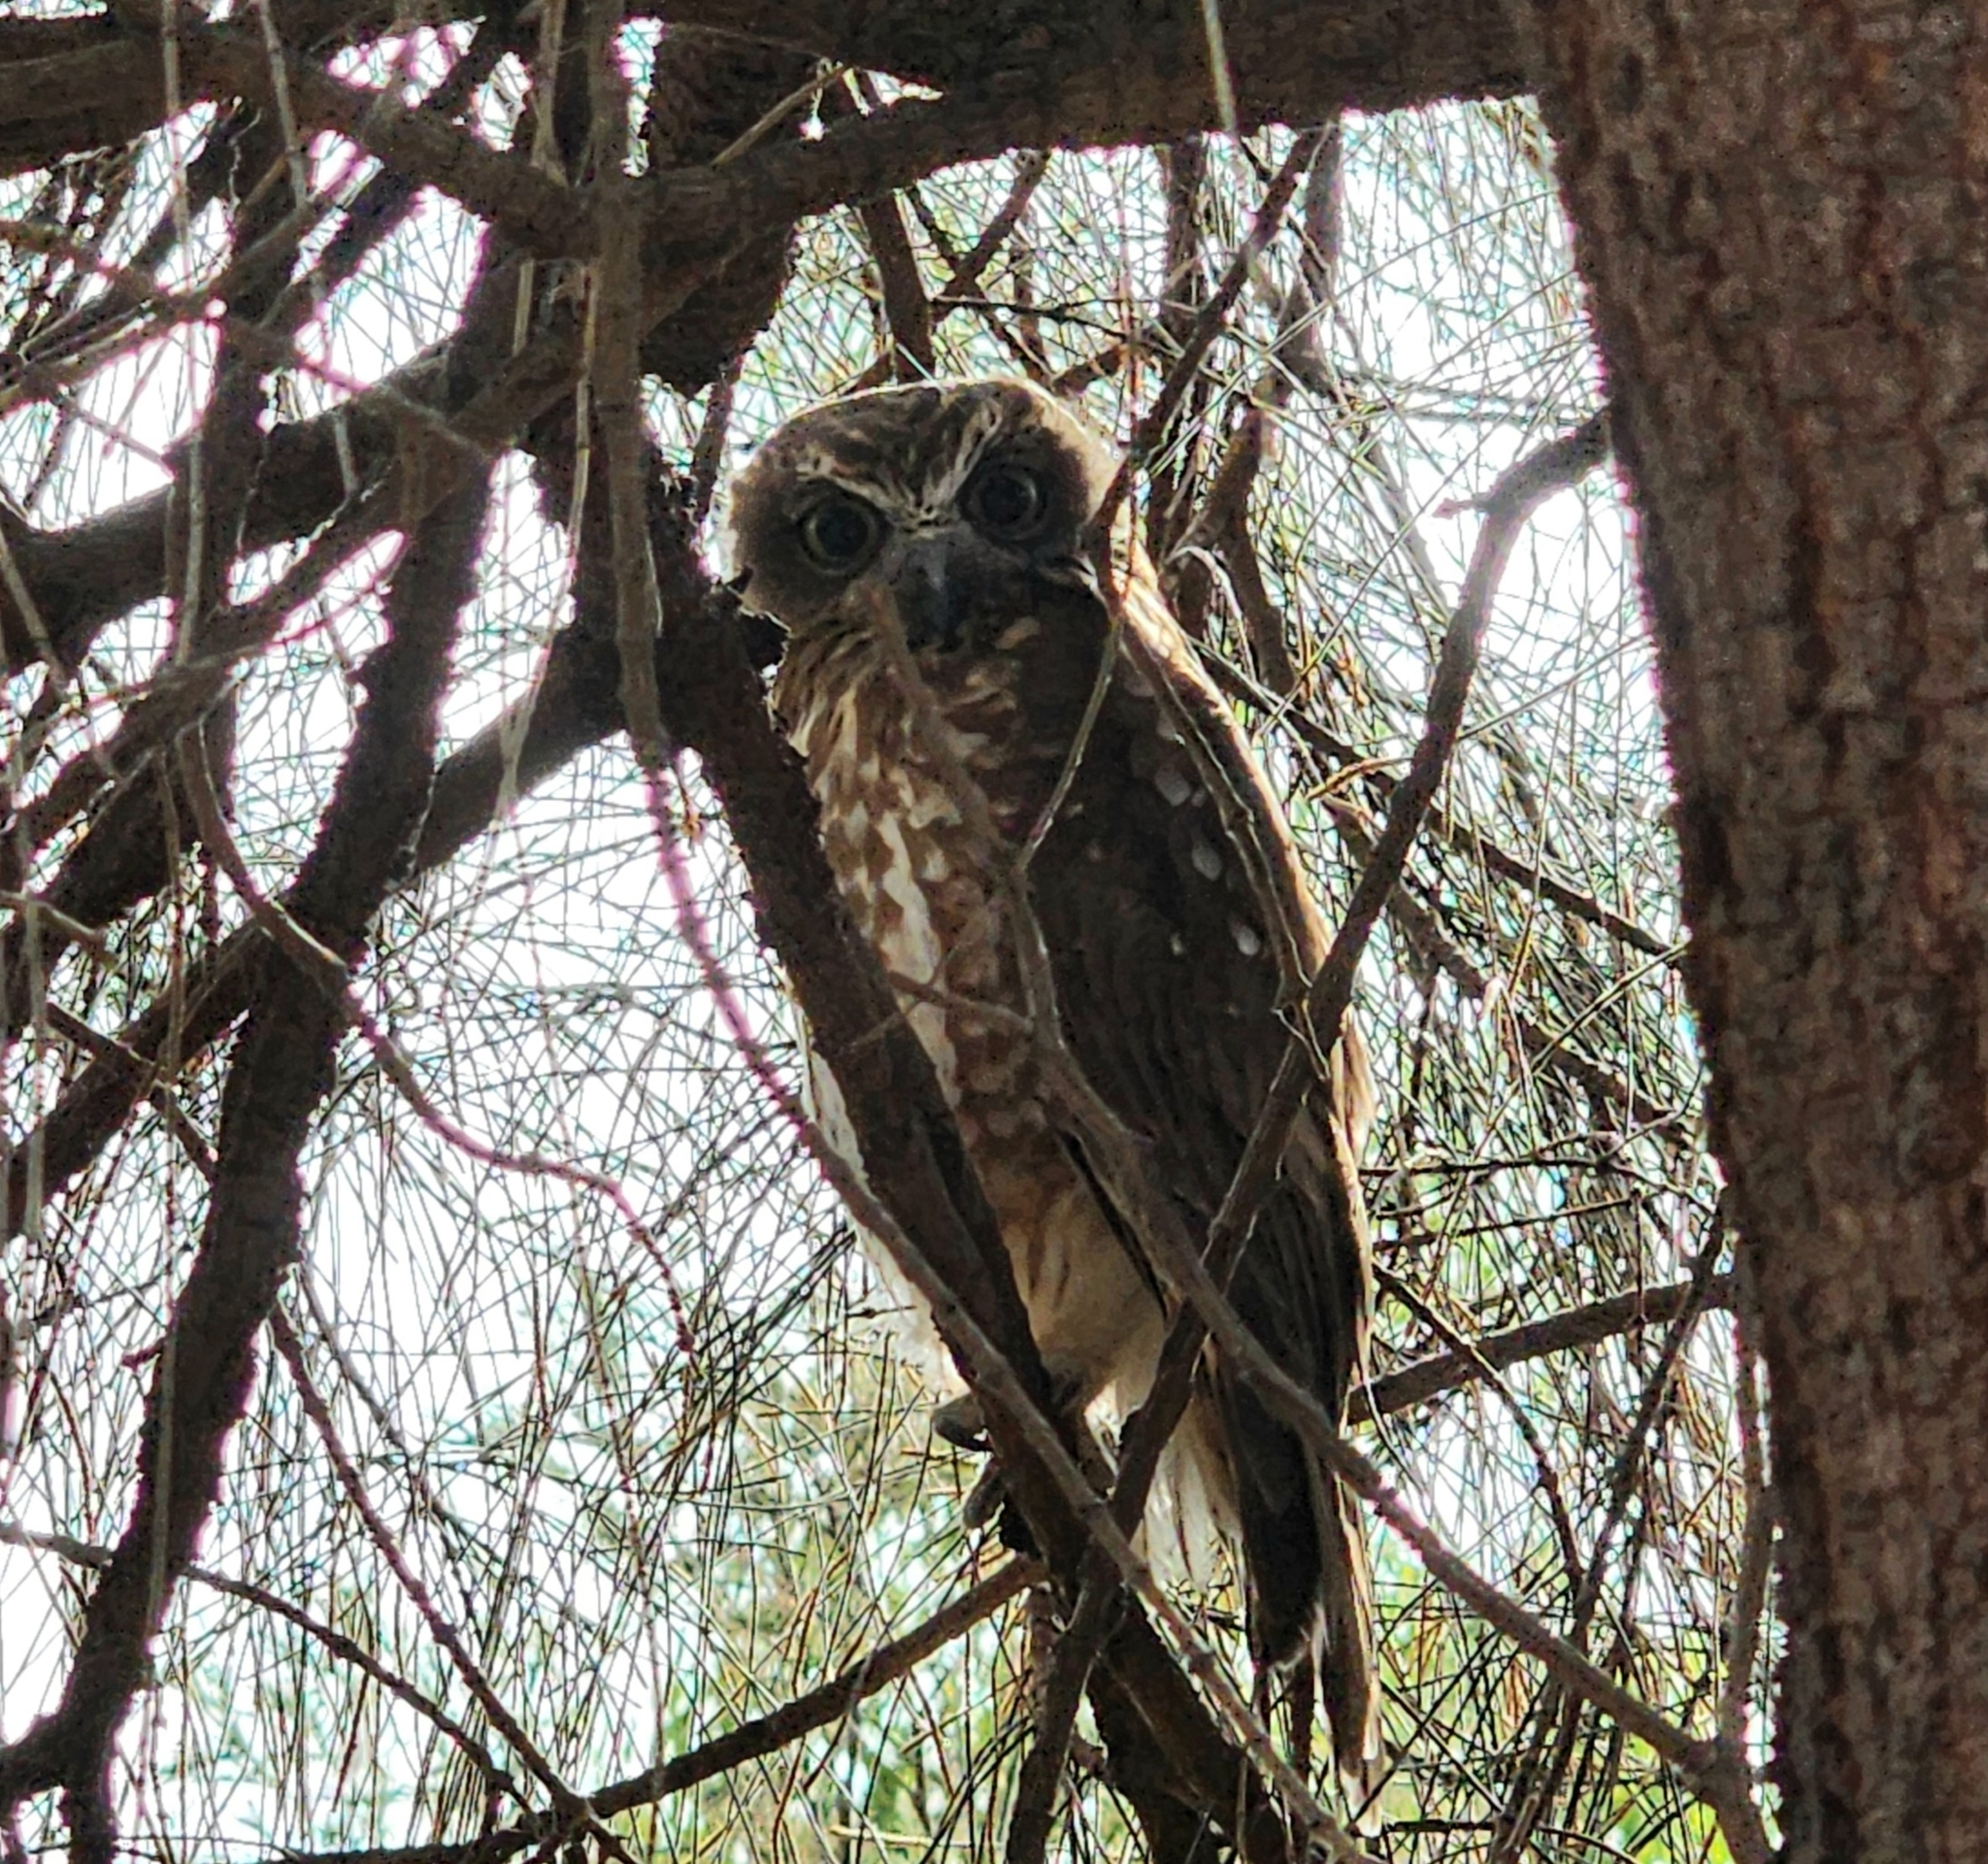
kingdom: Animalia
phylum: Chordata
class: Aves
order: Strigiformes
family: Strigidae
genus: Ninox
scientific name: Ninox boobook
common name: Southern boobook
